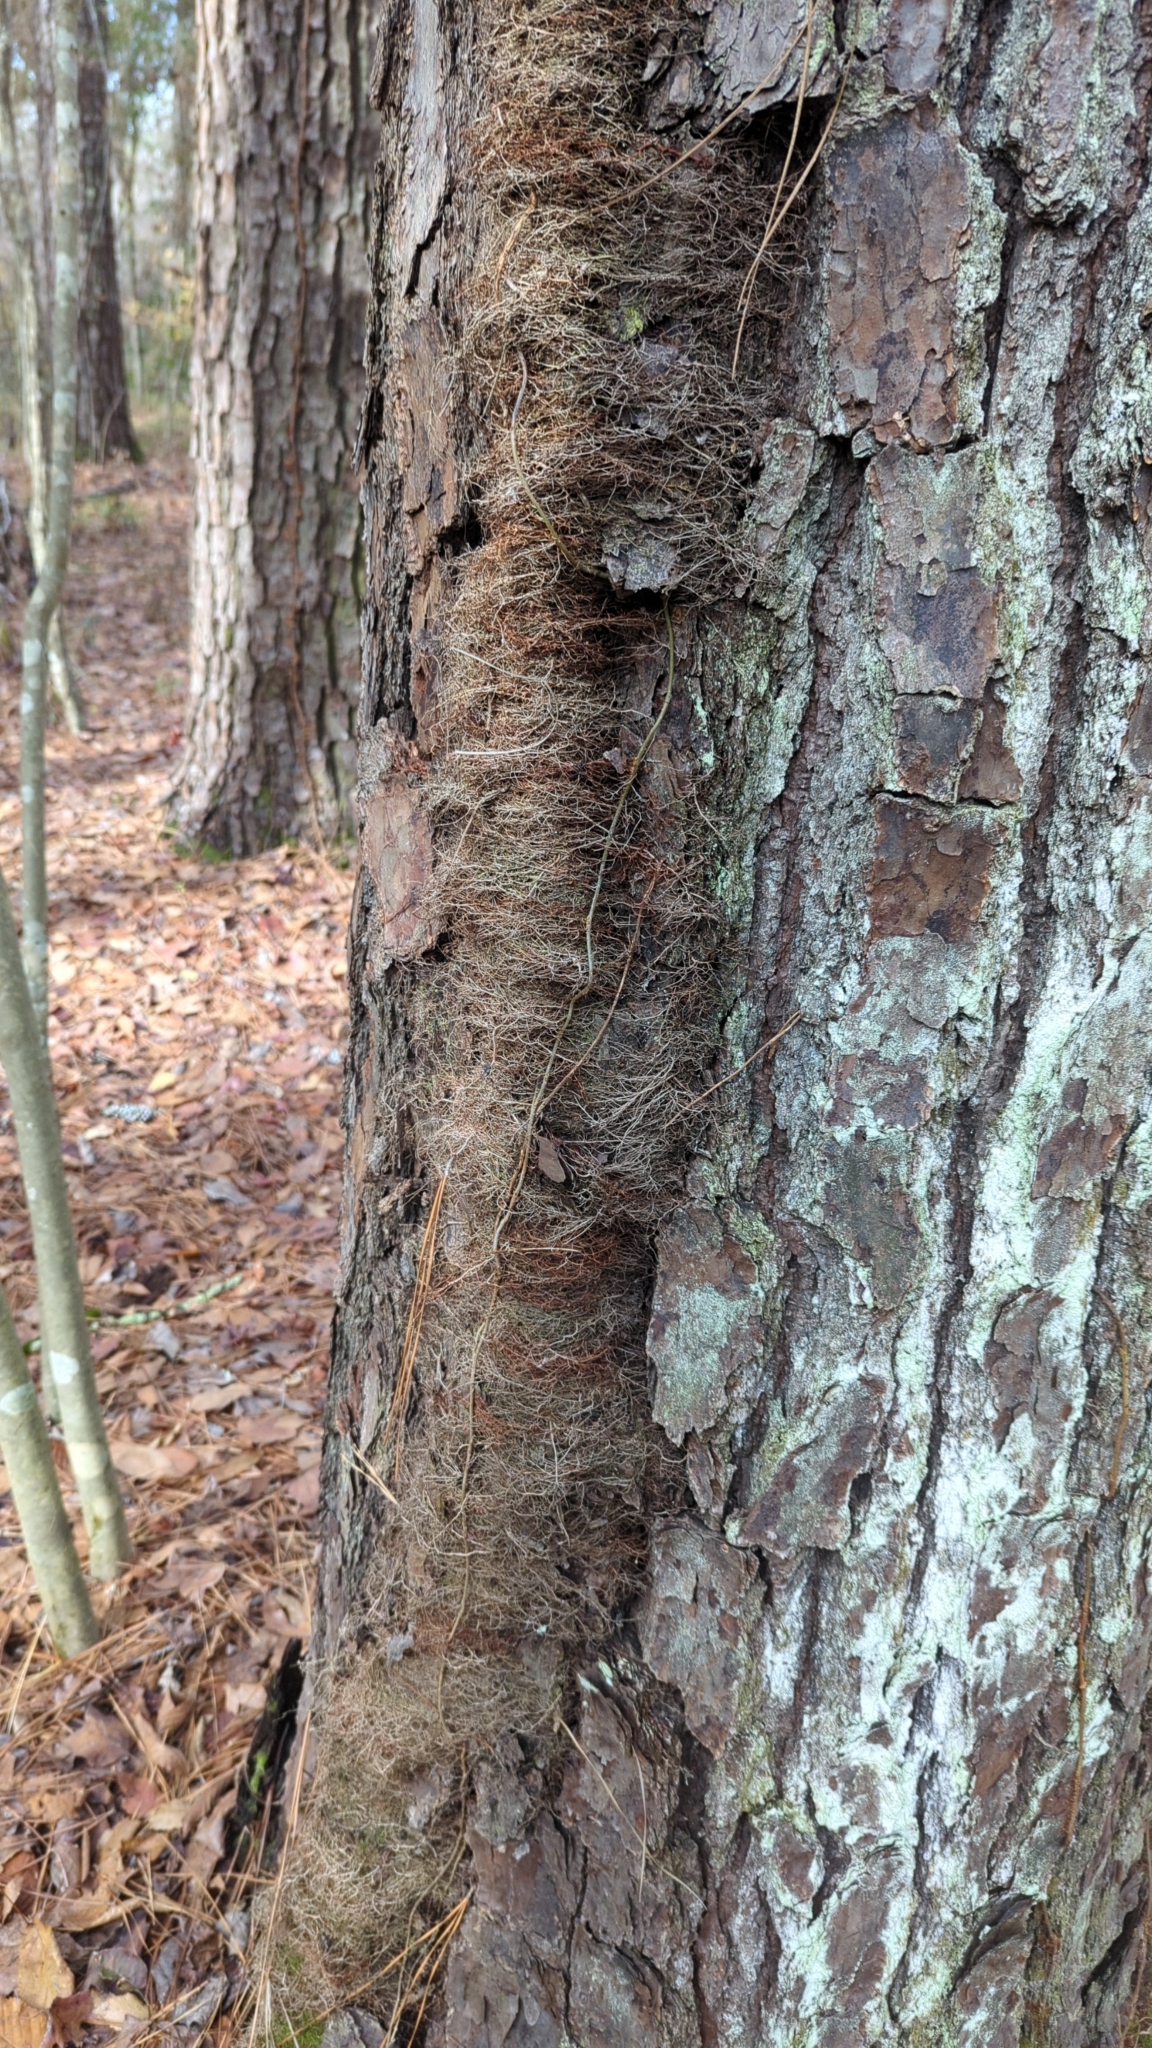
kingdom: Plantae
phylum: Tracheophyta
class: Magnoliopsida
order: Sapindales
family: Anacardiaceae
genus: Toxicodendron
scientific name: Toxicodendron radicans
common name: Poison ivy
